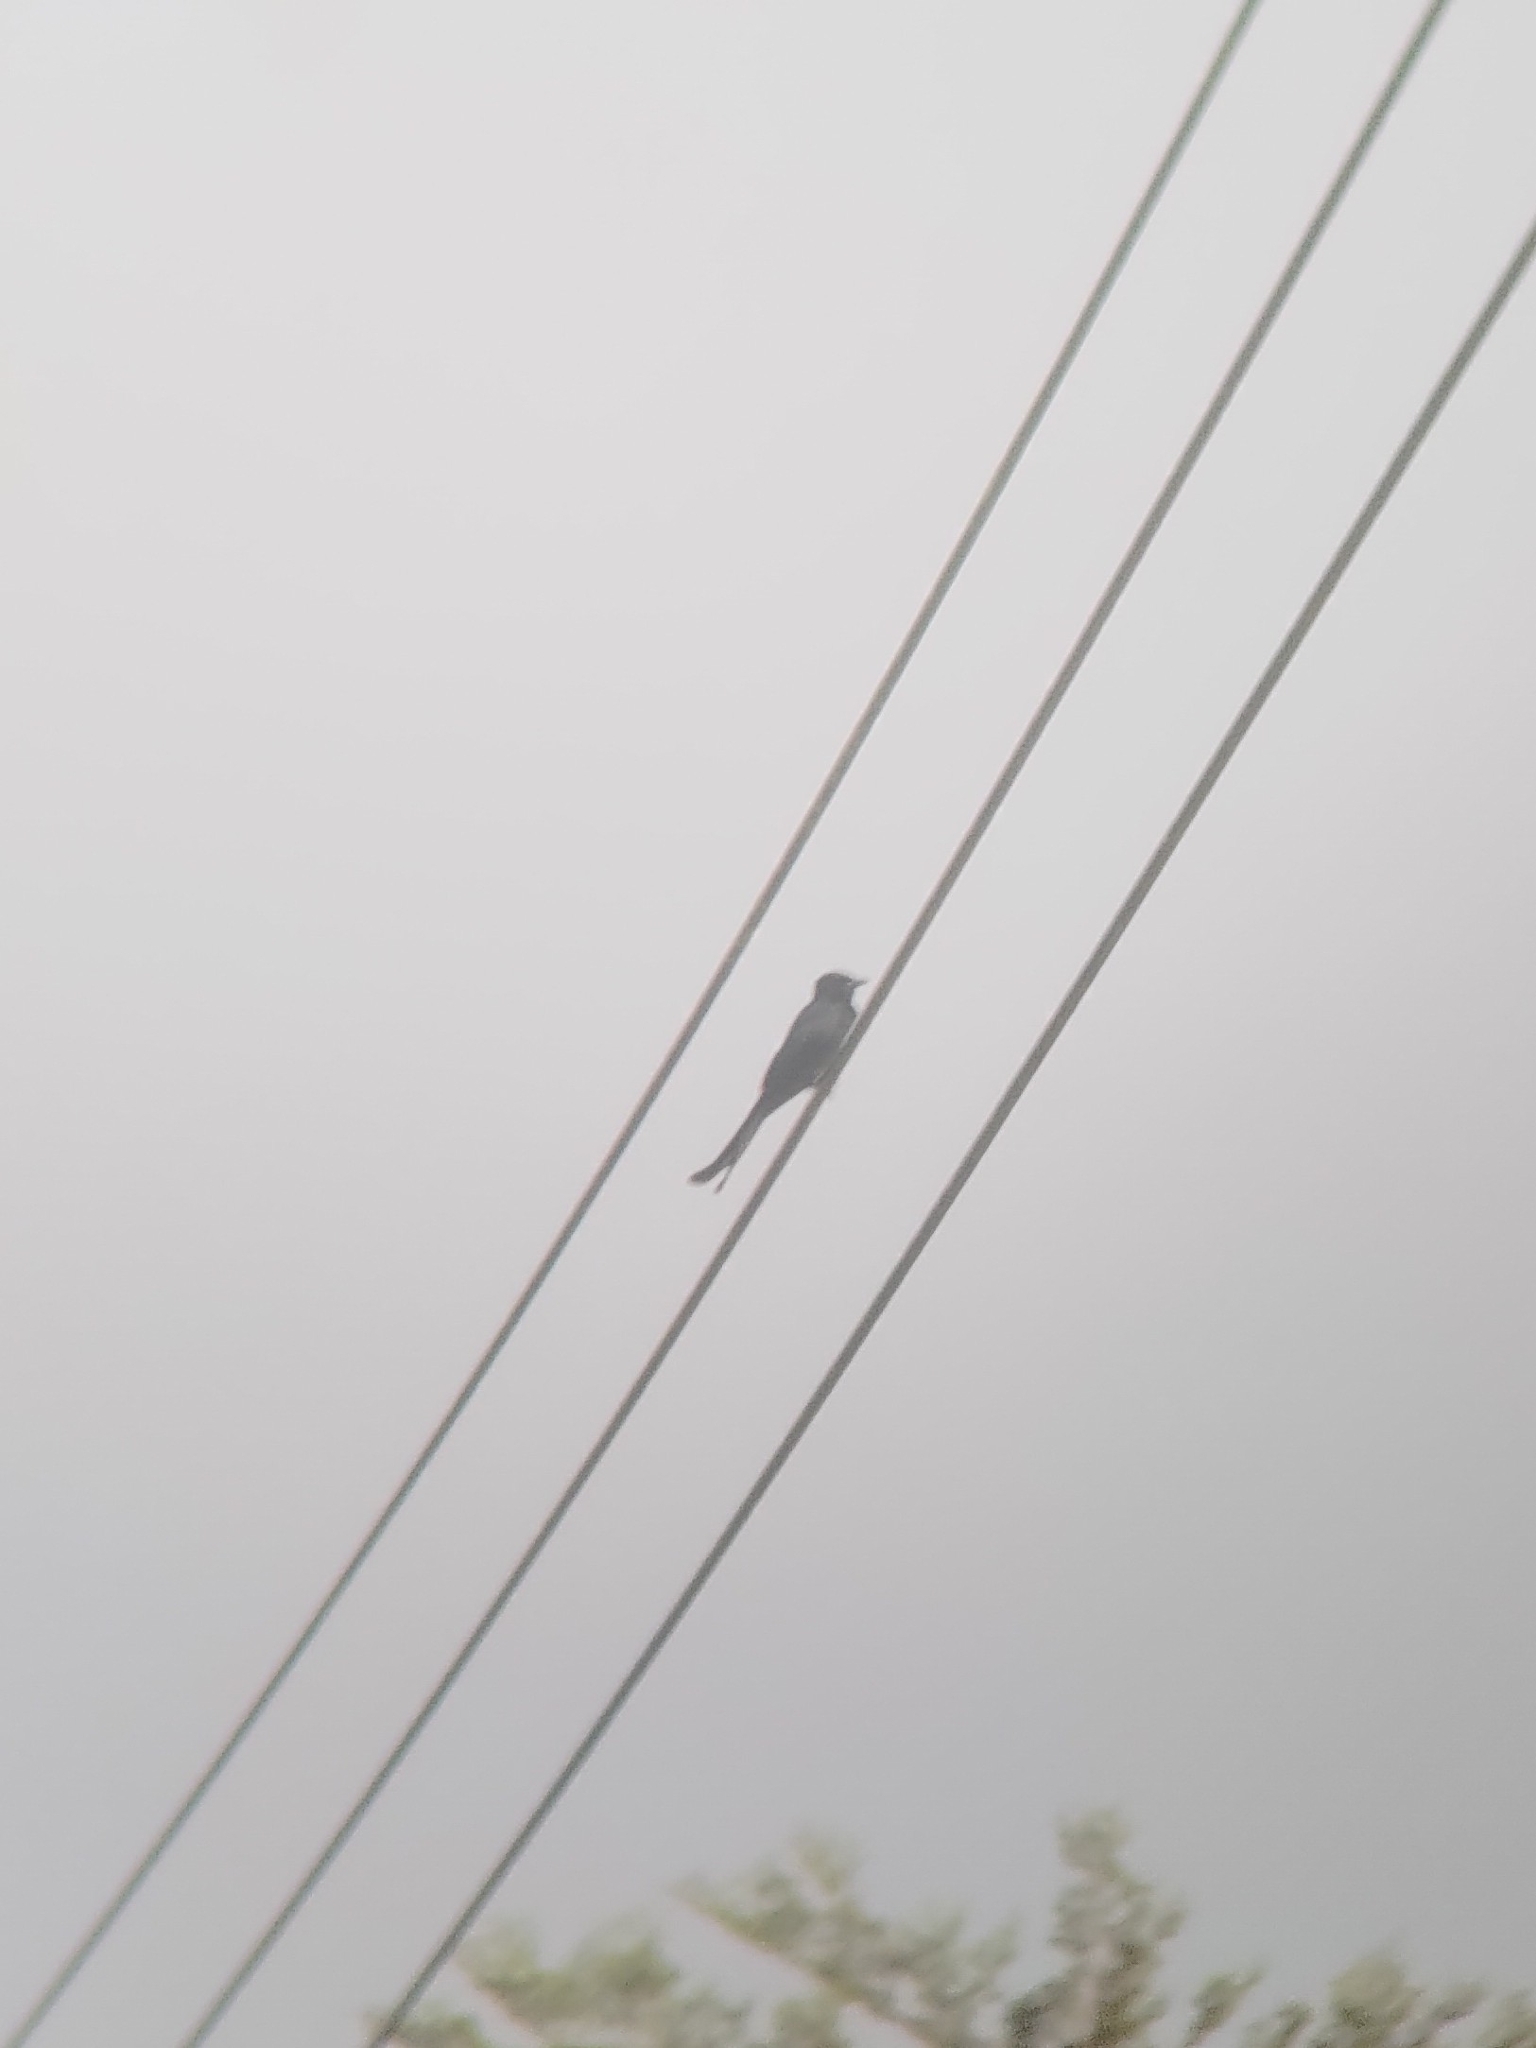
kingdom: Animalia
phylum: Chordata
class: Aves
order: Passeriformes
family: Dicruridae
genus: Dicrurus
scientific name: Dicrurus macrocercus
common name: Black drongo
